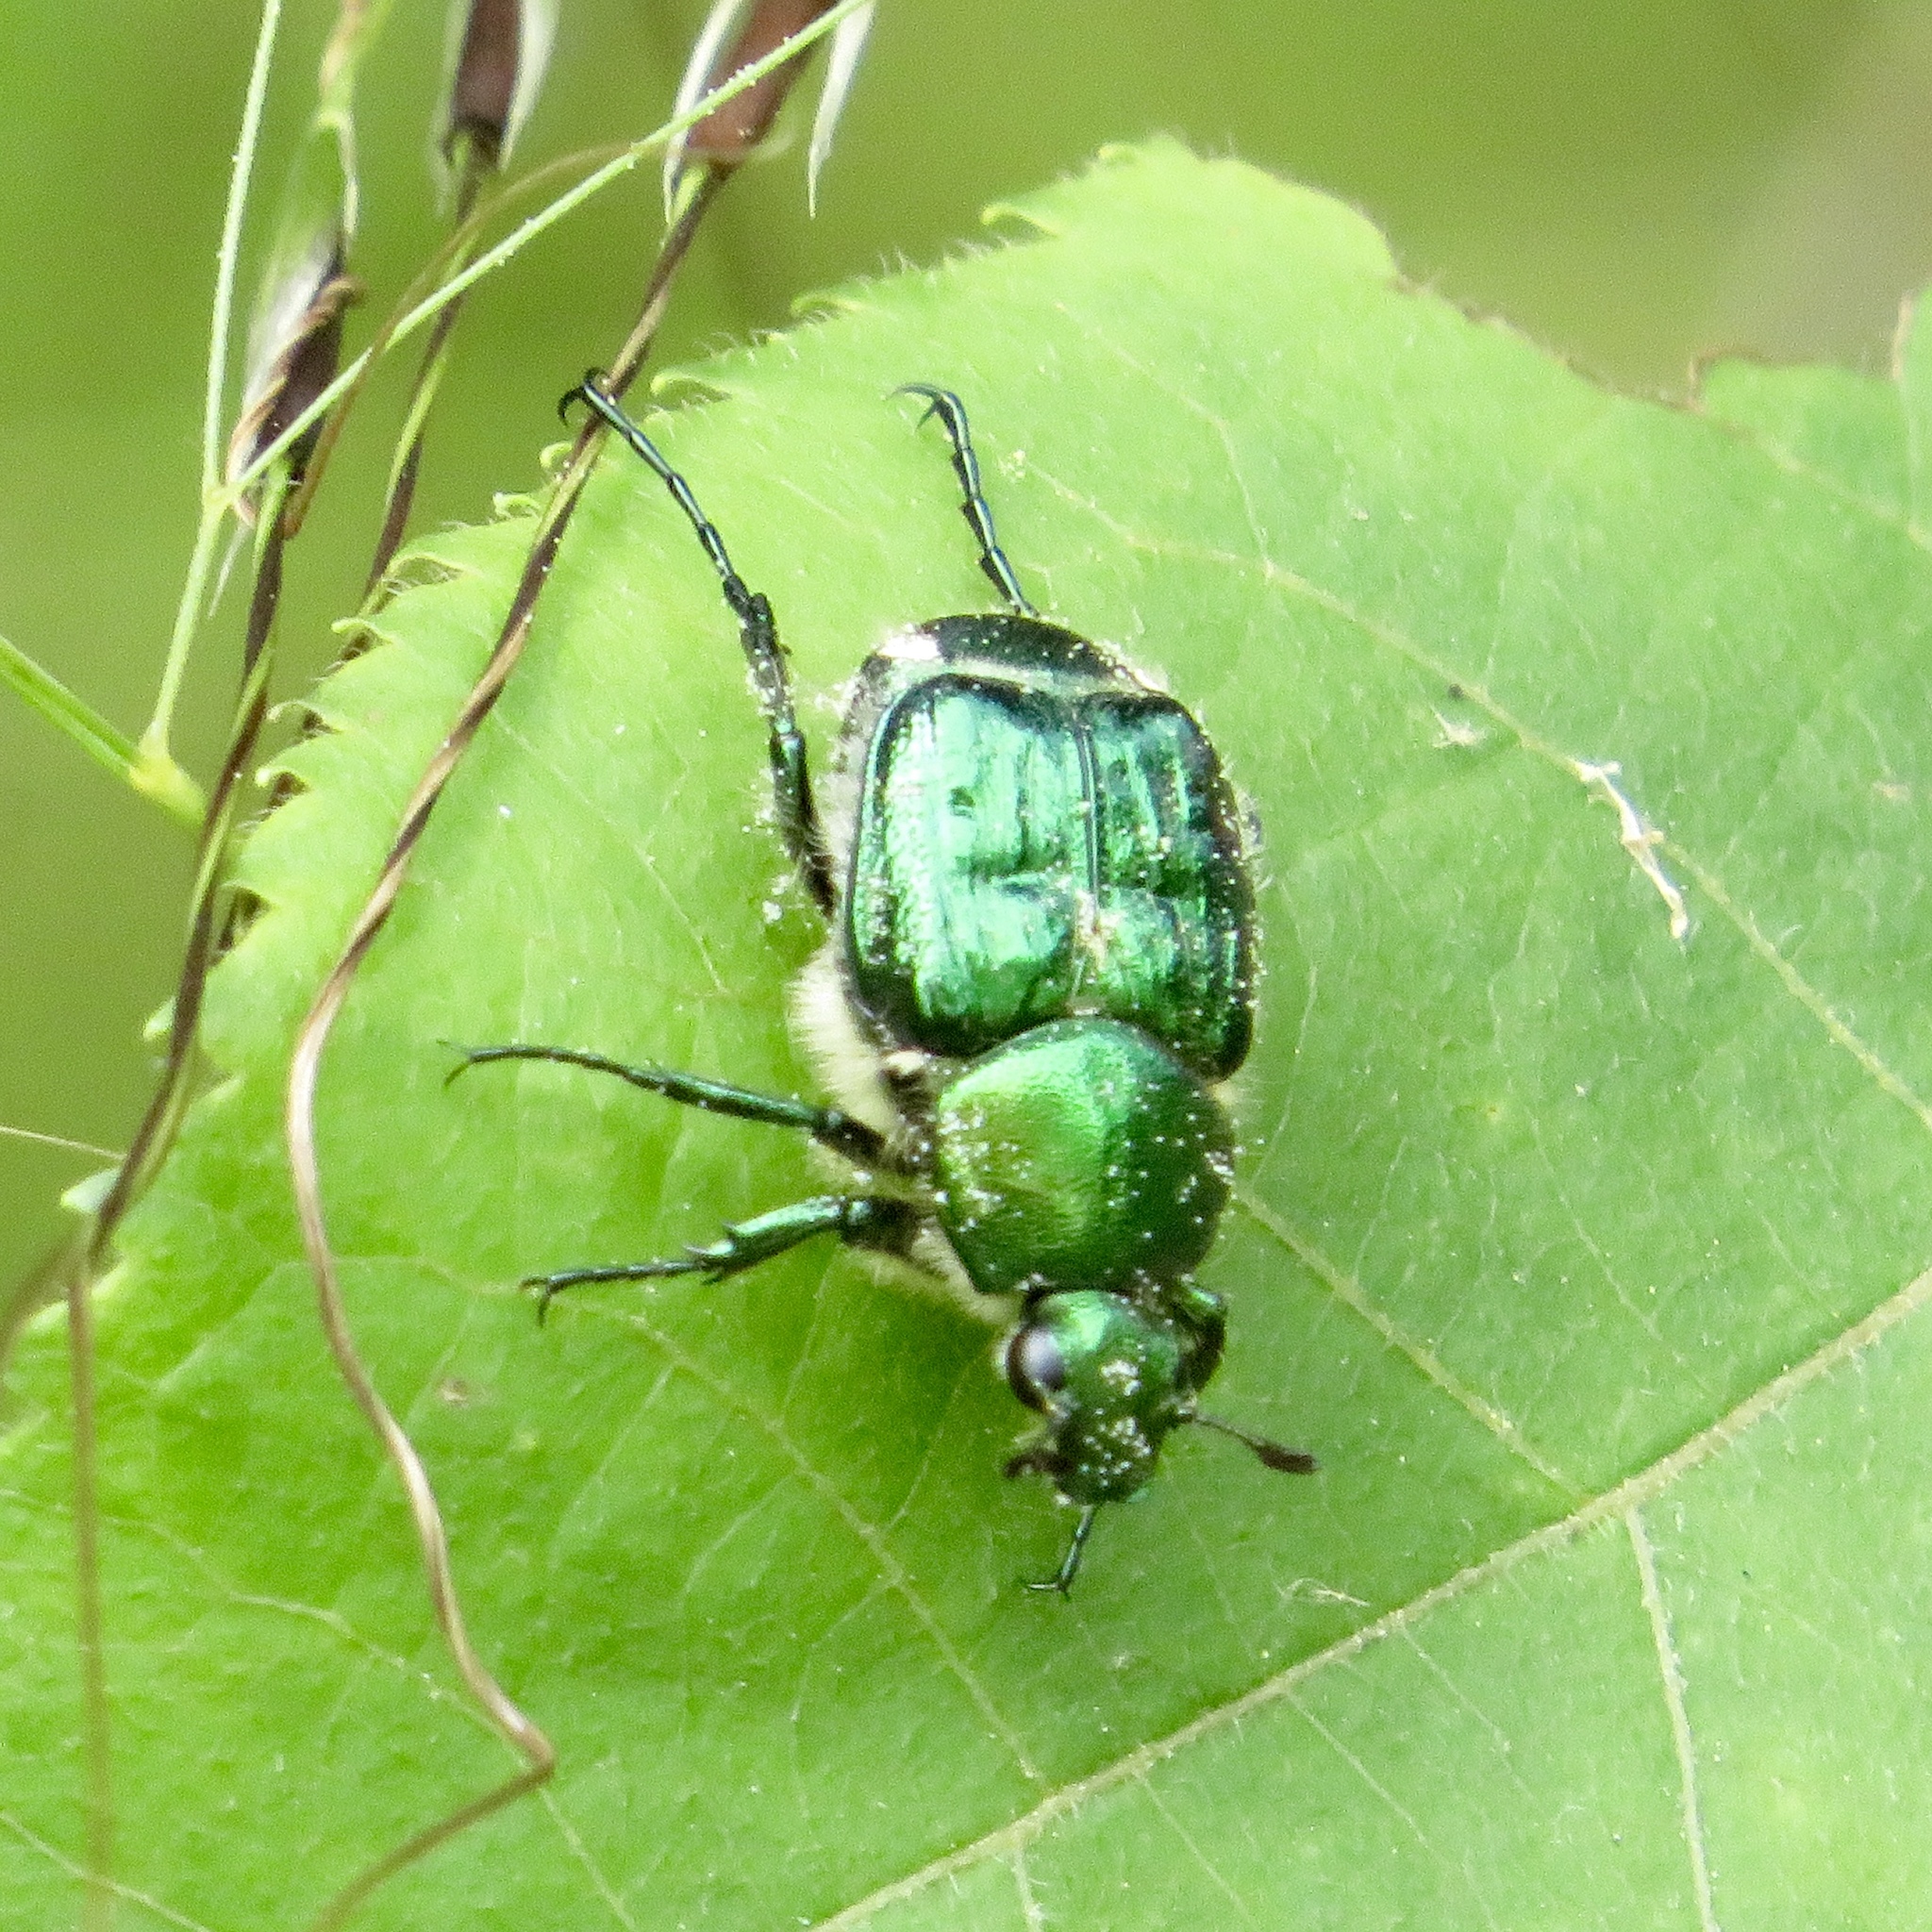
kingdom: Animalia
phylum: Arthropoda
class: Insecta
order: Coleoptera
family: Scarabaeidae
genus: Trichiotinus
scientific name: Trichiotinus lunulatus
